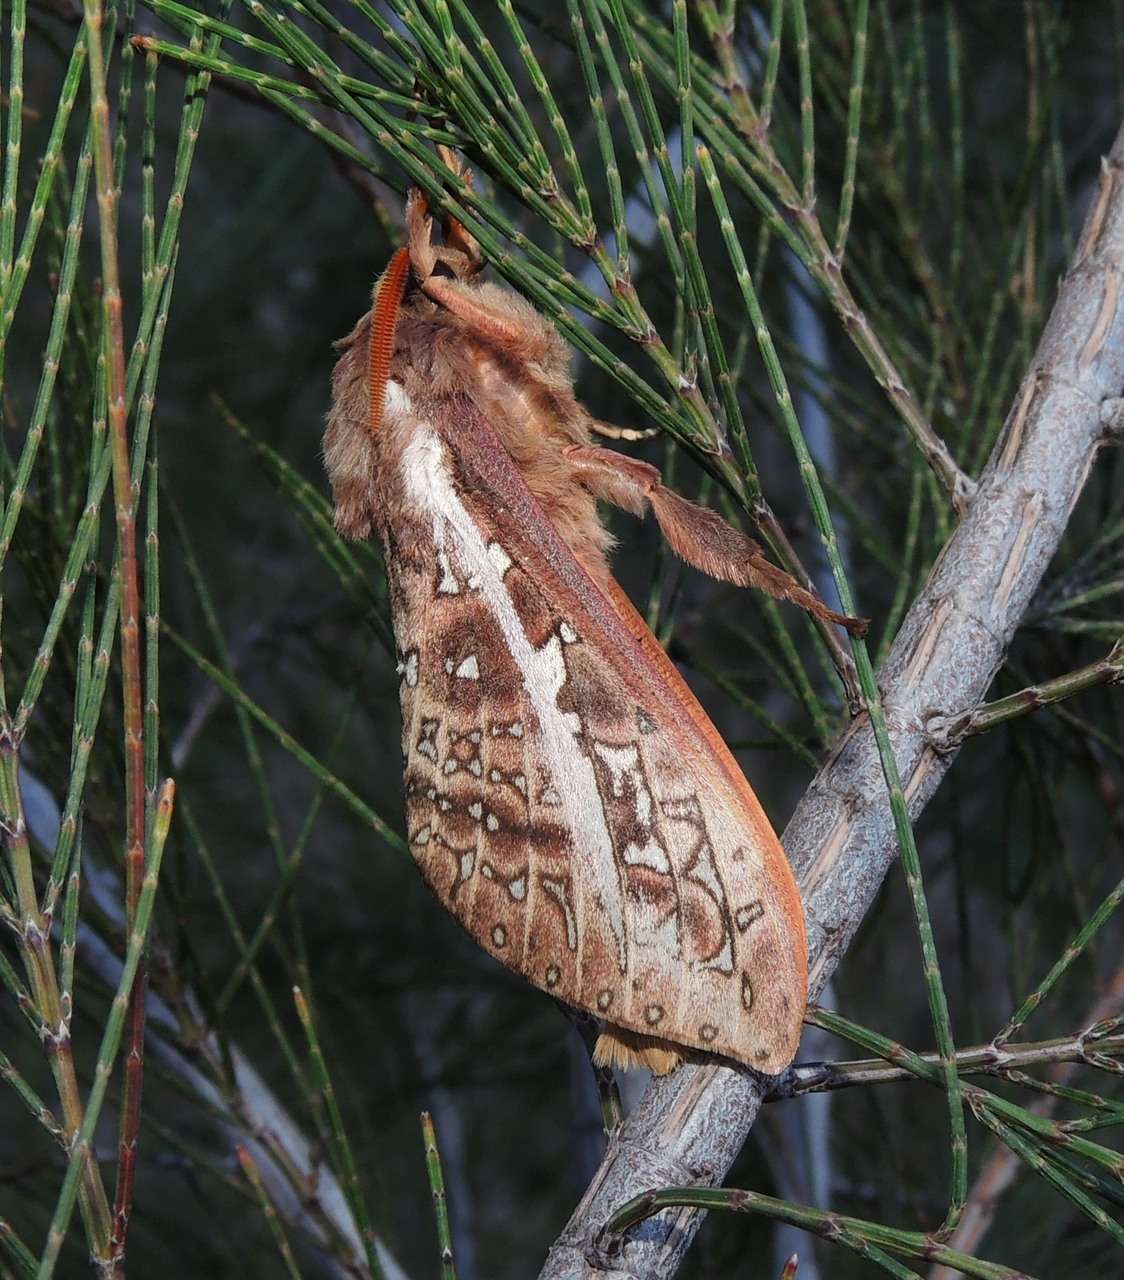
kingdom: Animalia
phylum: Arthropoda
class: Insecta
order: Lepidoptera
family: Hepialidae
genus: Oxycanus
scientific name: Oxycanus australis
